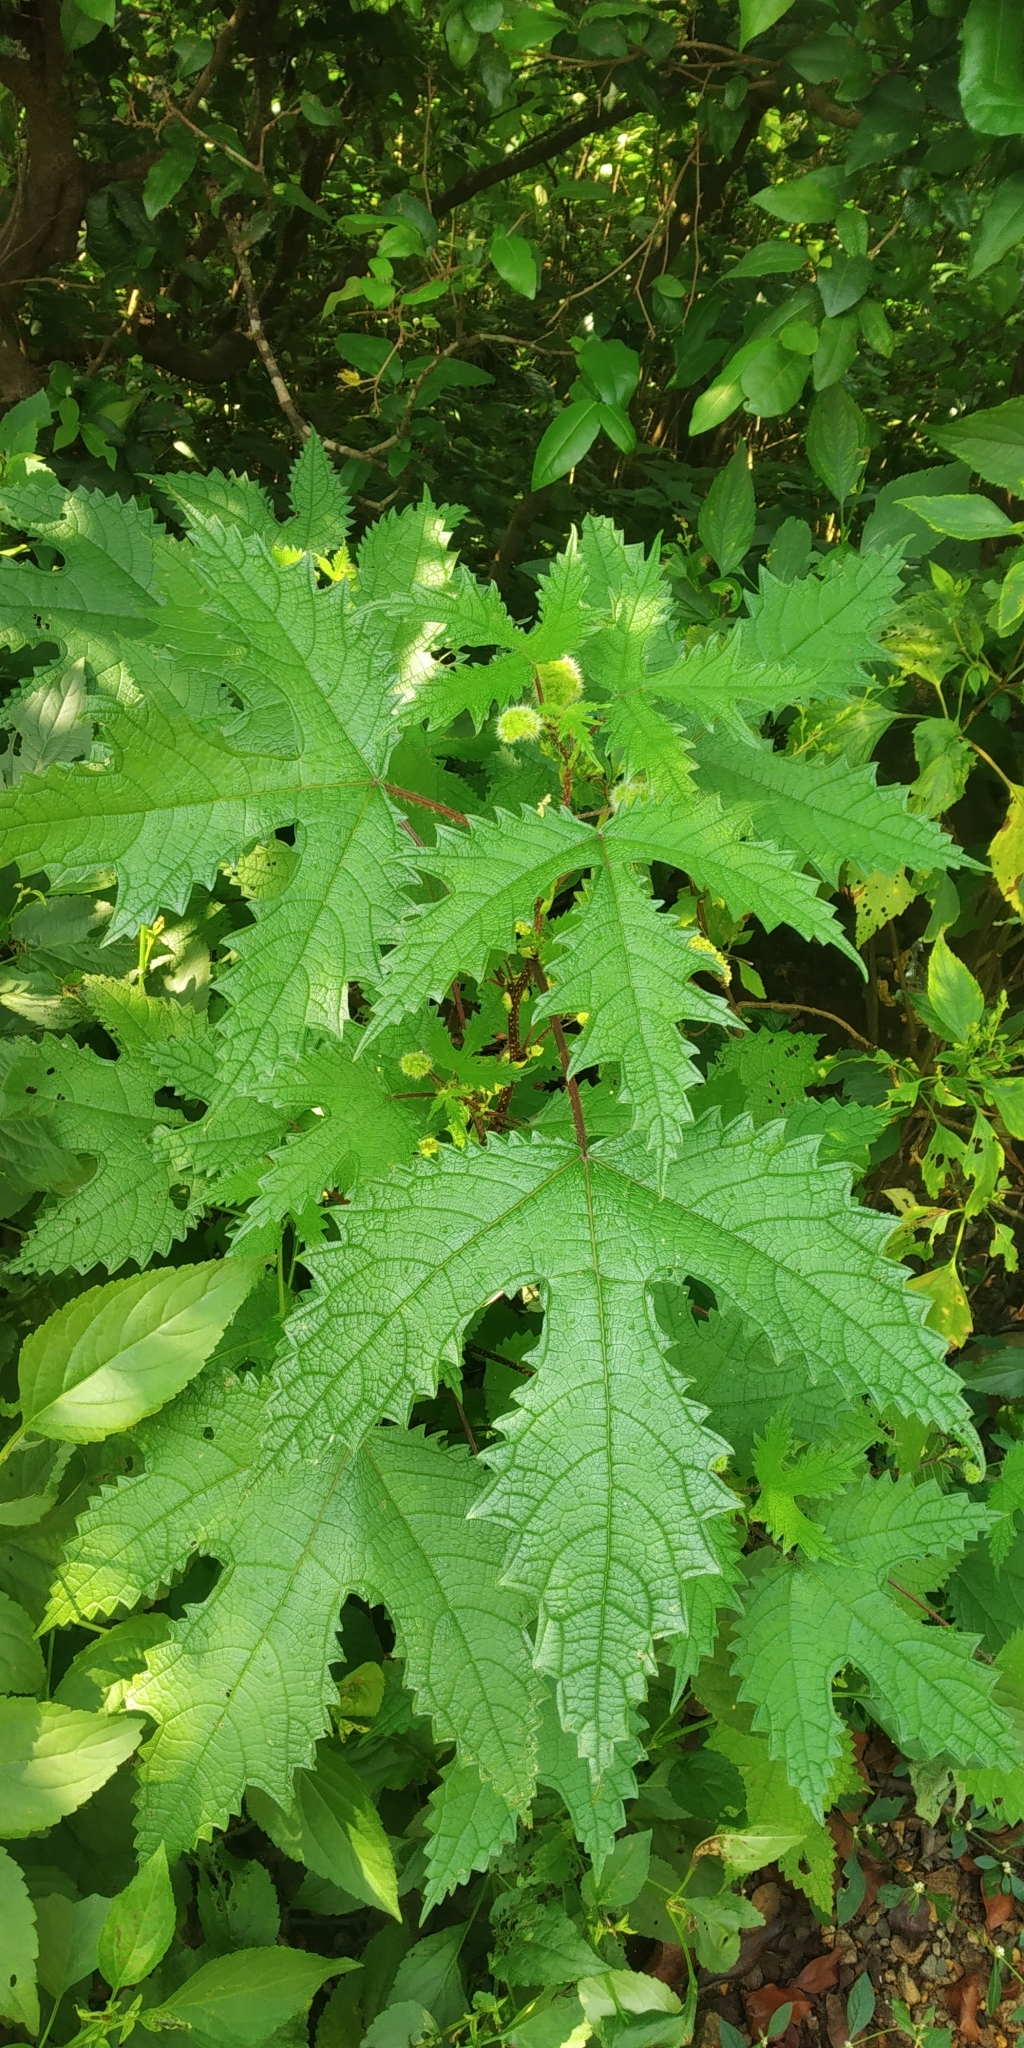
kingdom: Plantae
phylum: Tracheophyta
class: Magnoliopsida
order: Rosales
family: Urticaceae
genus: Girardinia
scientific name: Girardinia diversifolia
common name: Himalayan-nettle
